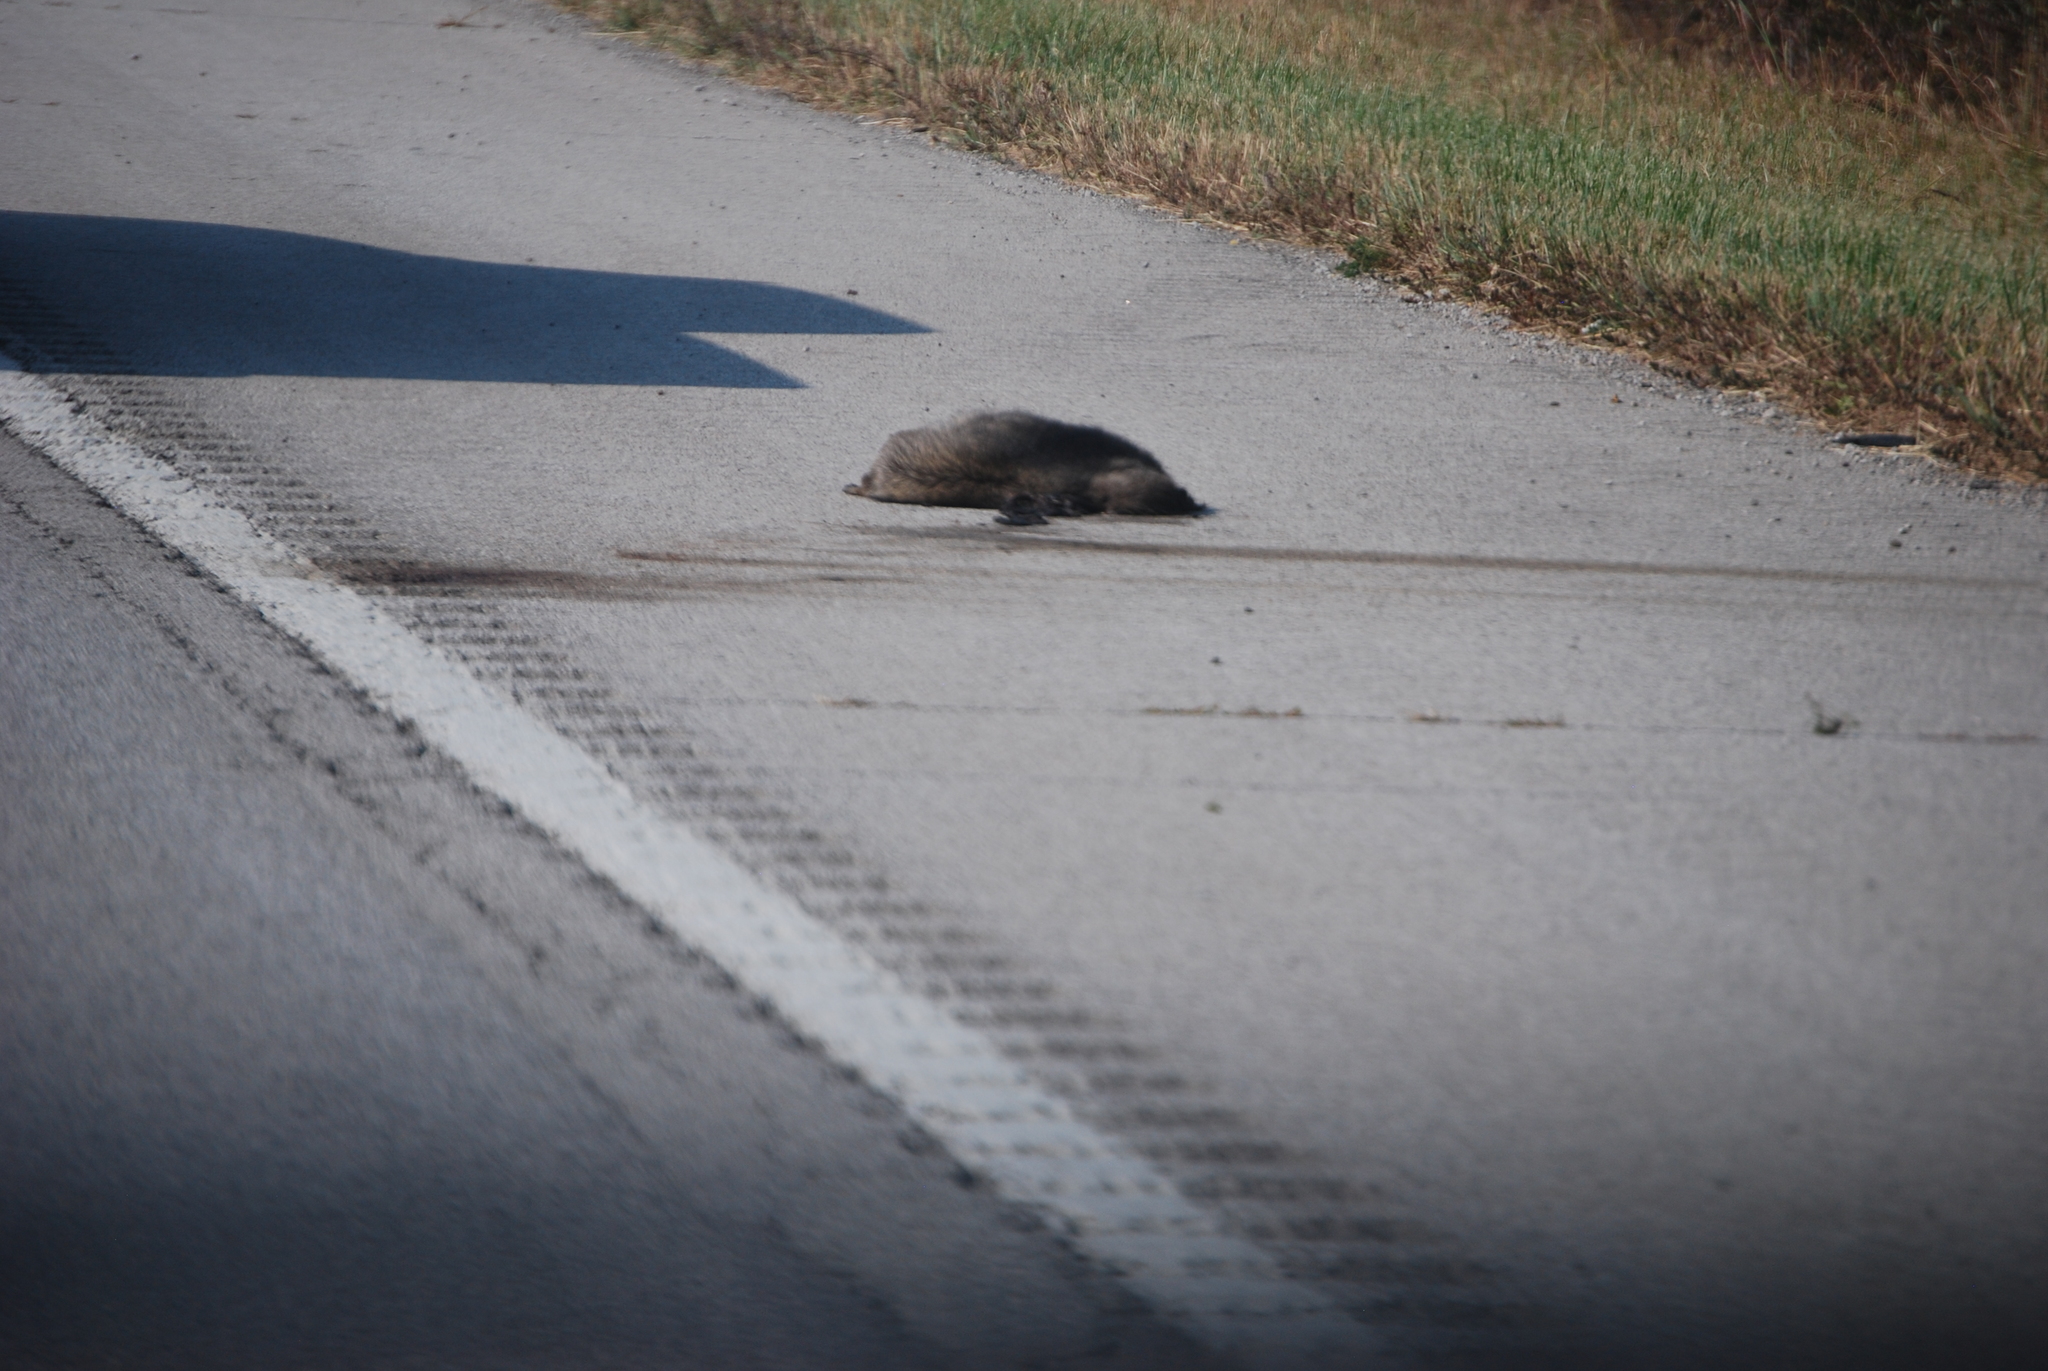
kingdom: Animalia
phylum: Chordata
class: Mammalia
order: Carnivora
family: Procyonidae
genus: Procyon
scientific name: Procyon lotor
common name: Raccoon
